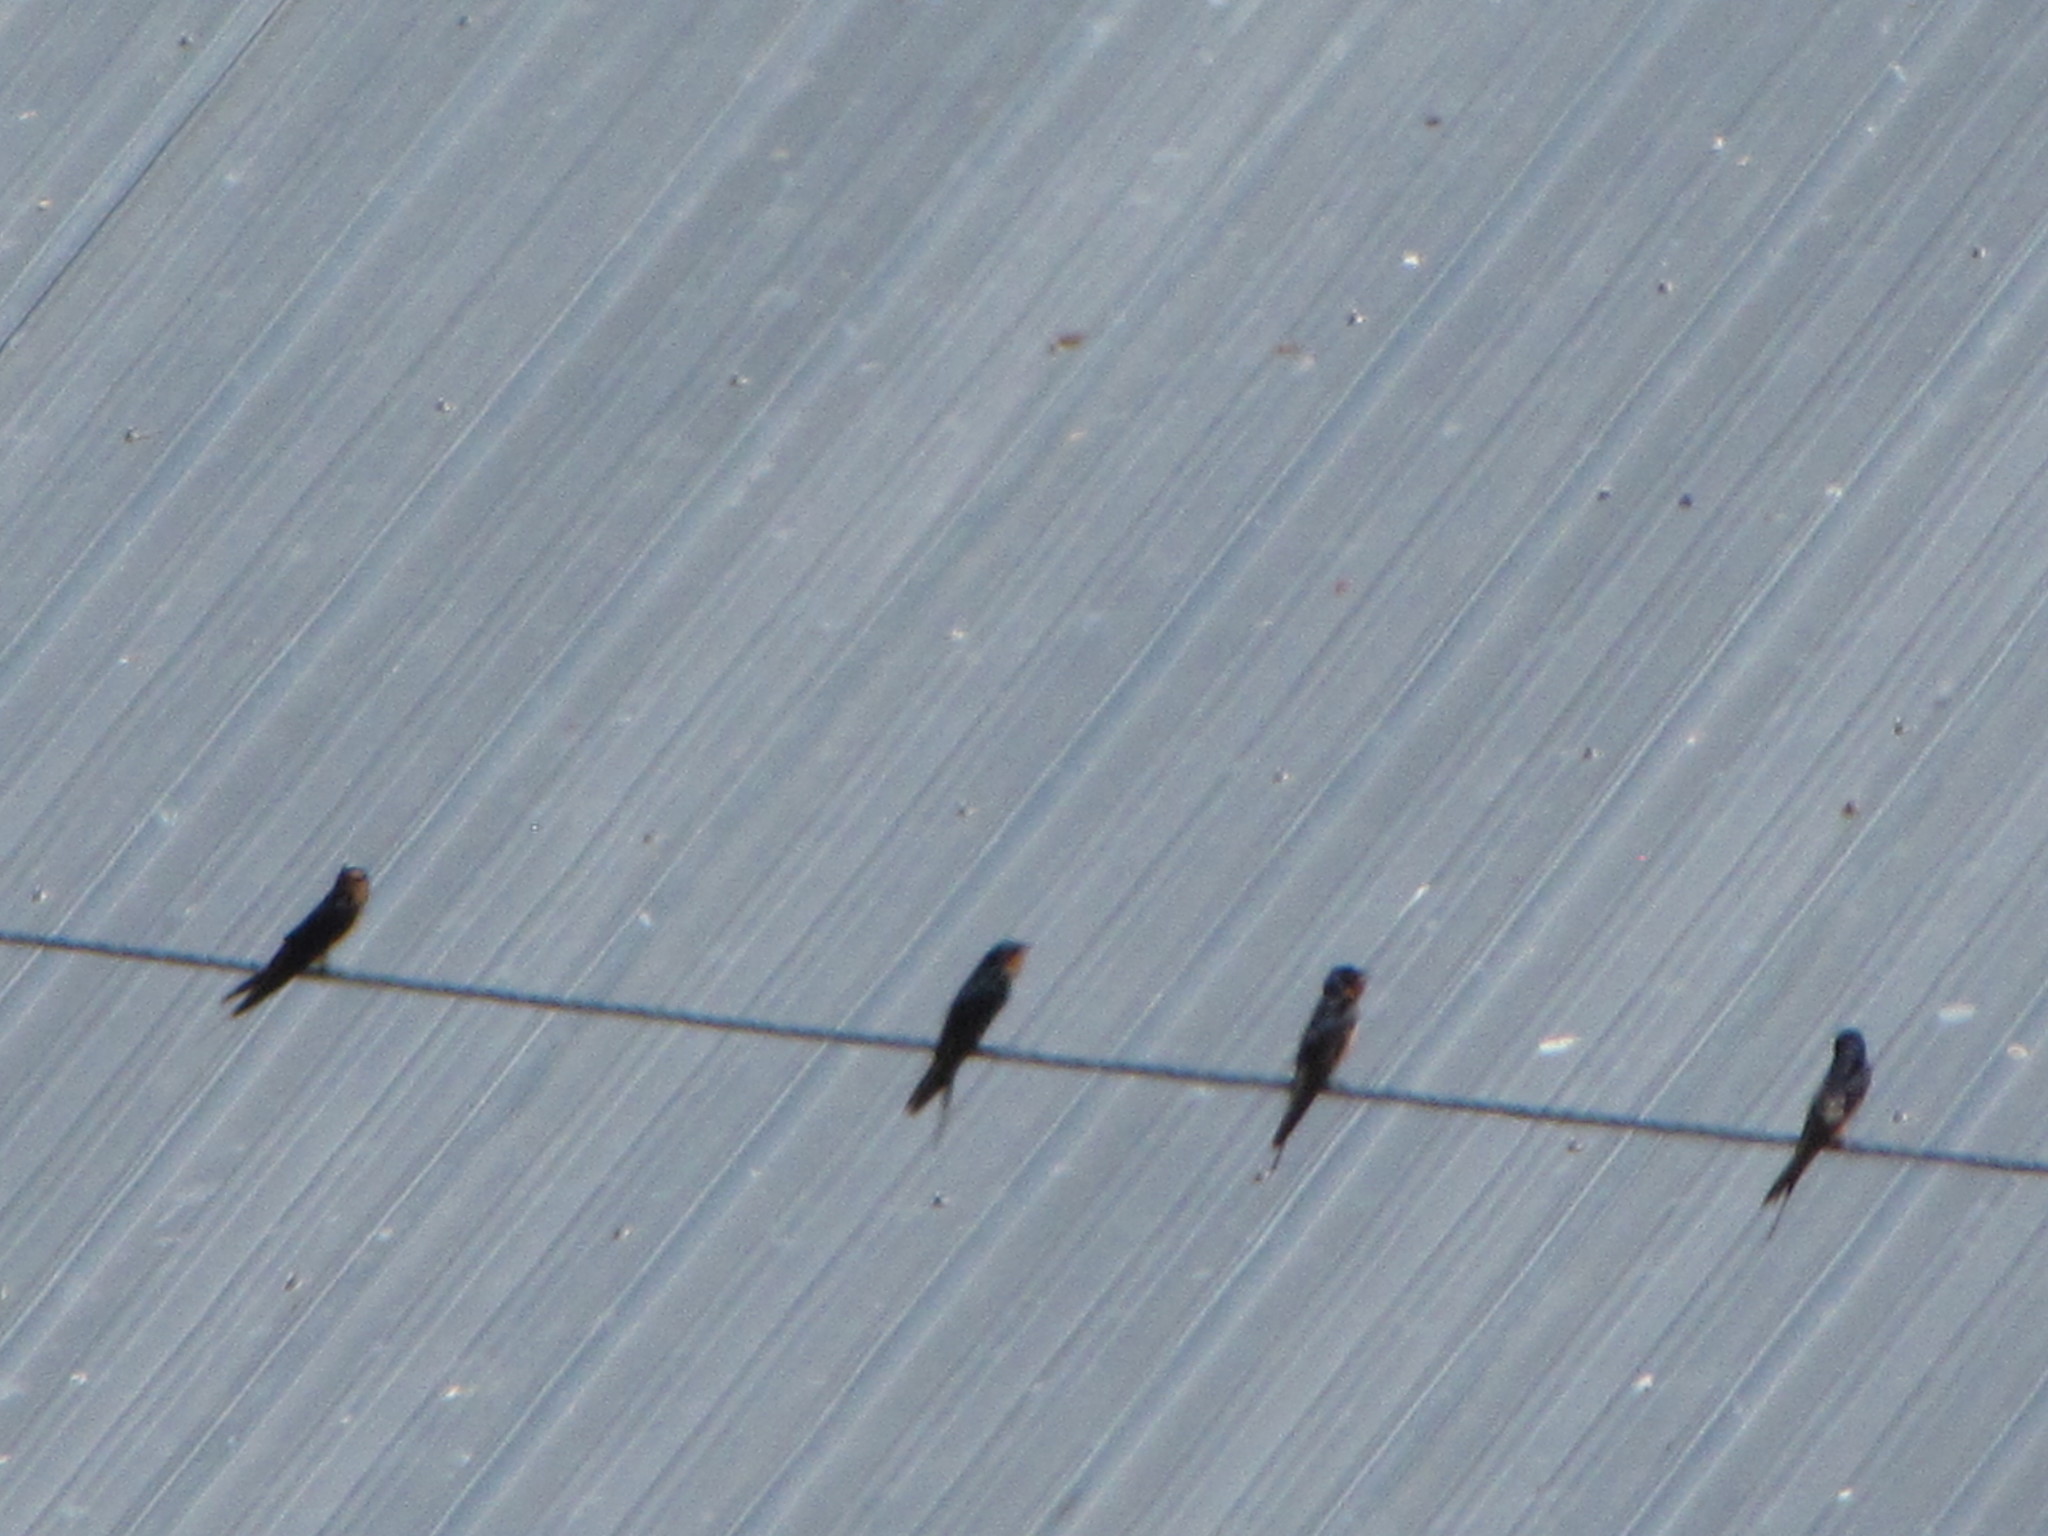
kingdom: Animalia
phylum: Chordata
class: Aves
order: Passeriformes
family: Hirundinidae
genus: Hirundo
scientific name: Hirundo rustica
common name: Barn swallow
